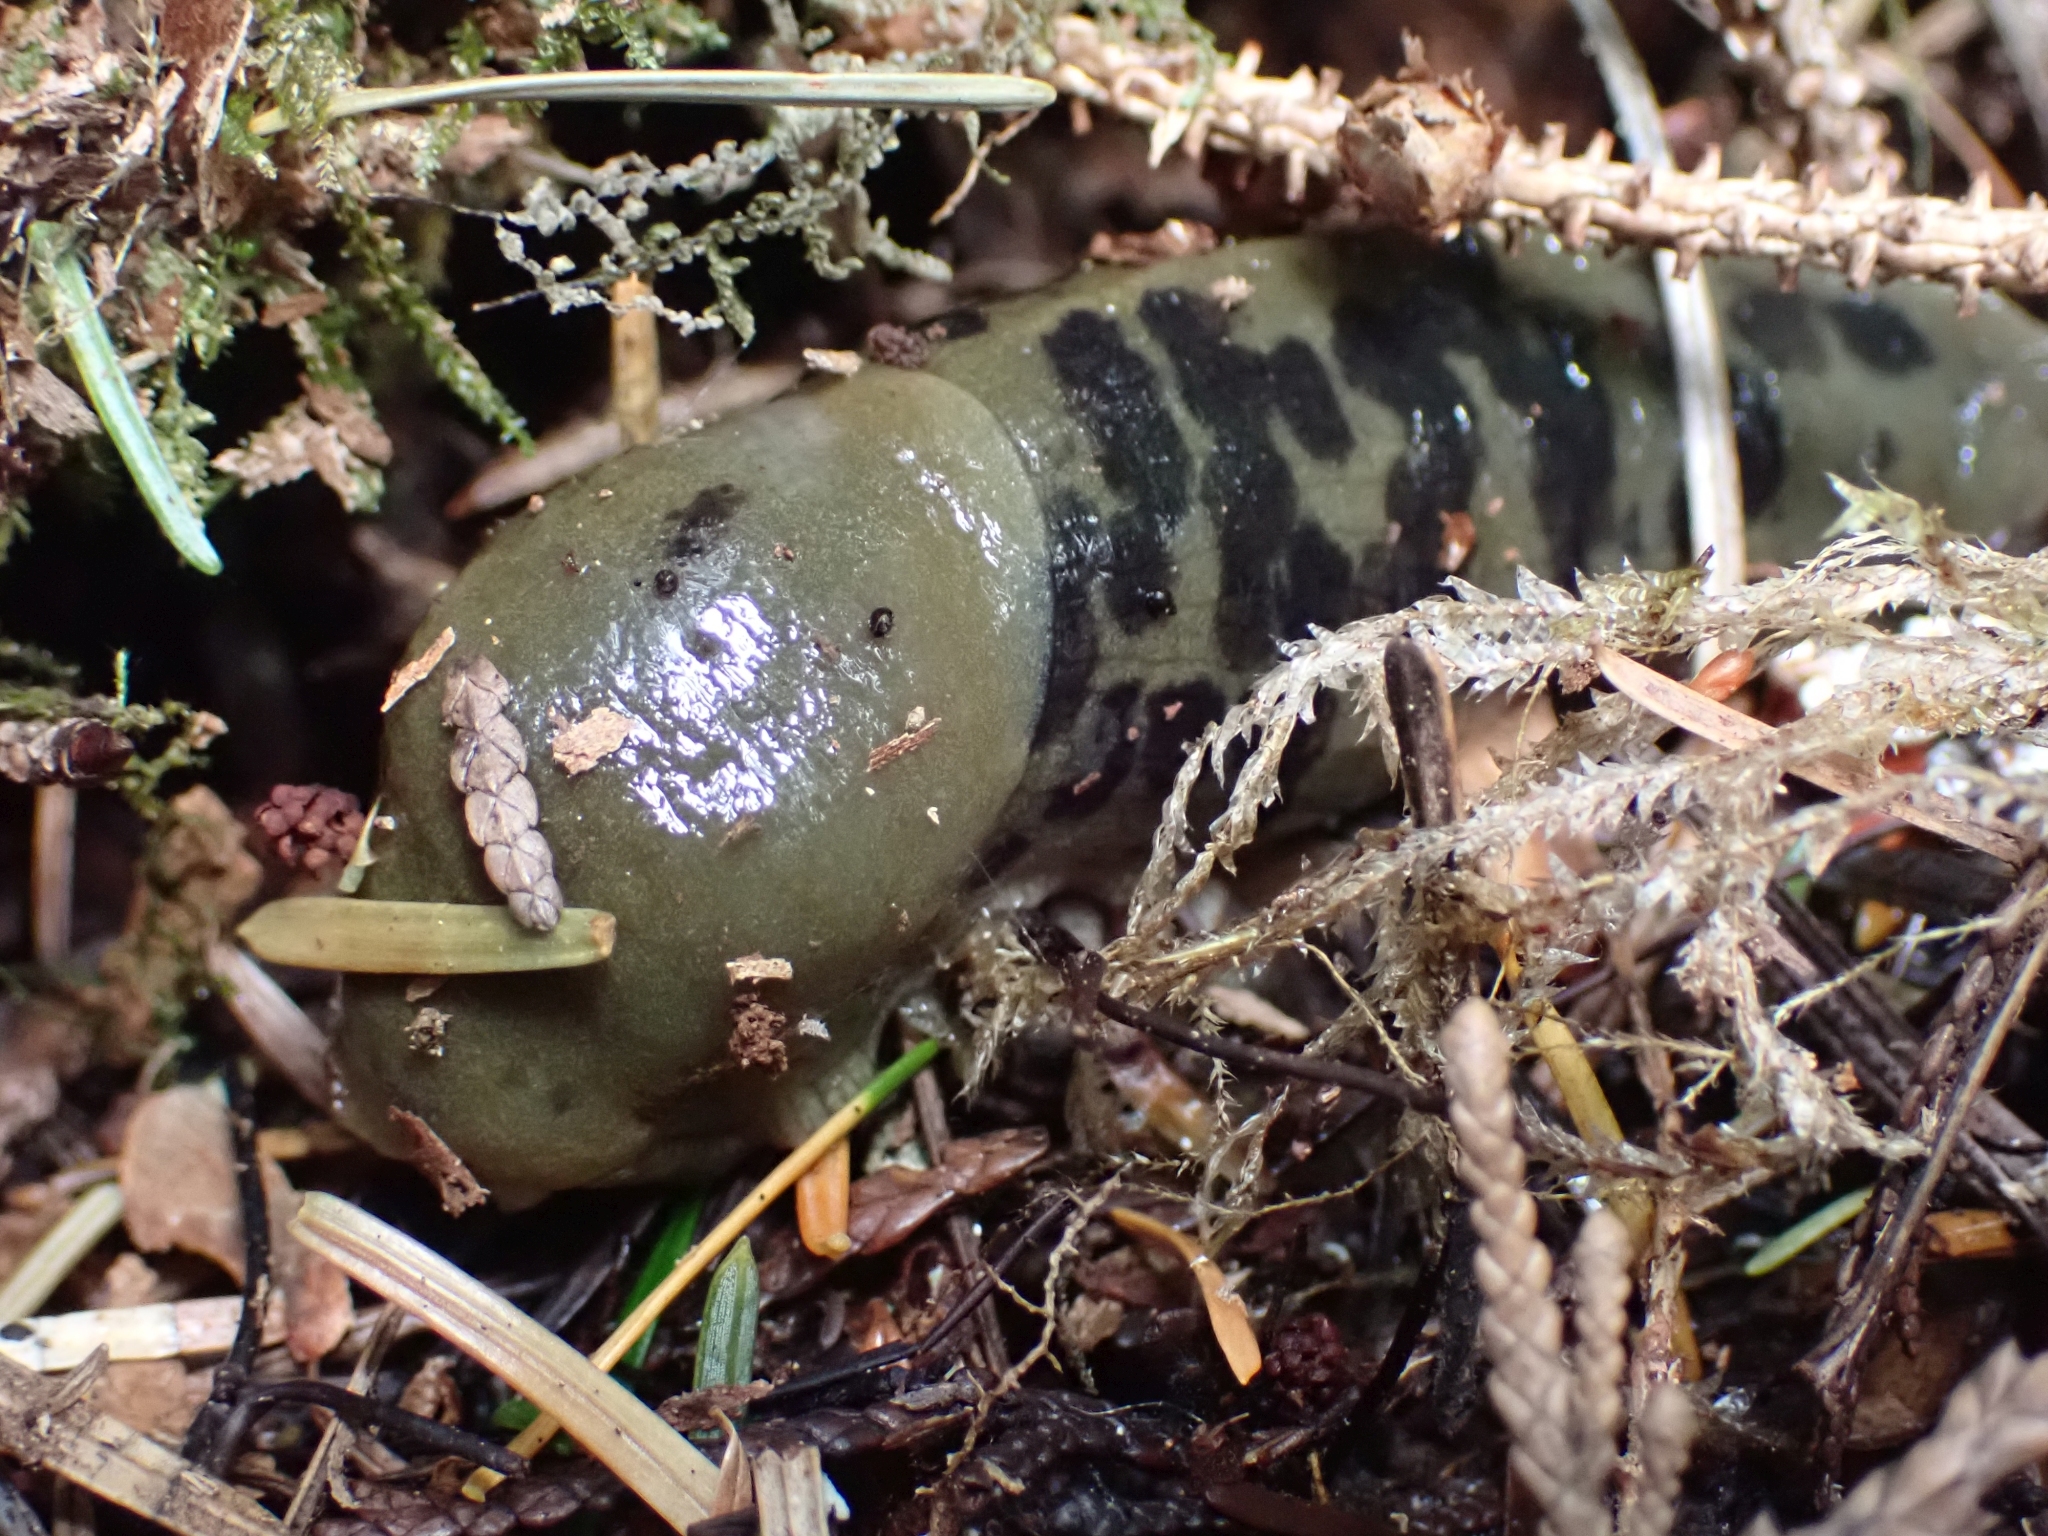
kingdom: Animalia
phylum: Mollusca
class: Gastropoda
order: Stylommatophora
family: Ariolimacidae
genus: Ariolimax
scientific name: Ariolimax columbianus
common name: Pacific banana slug
